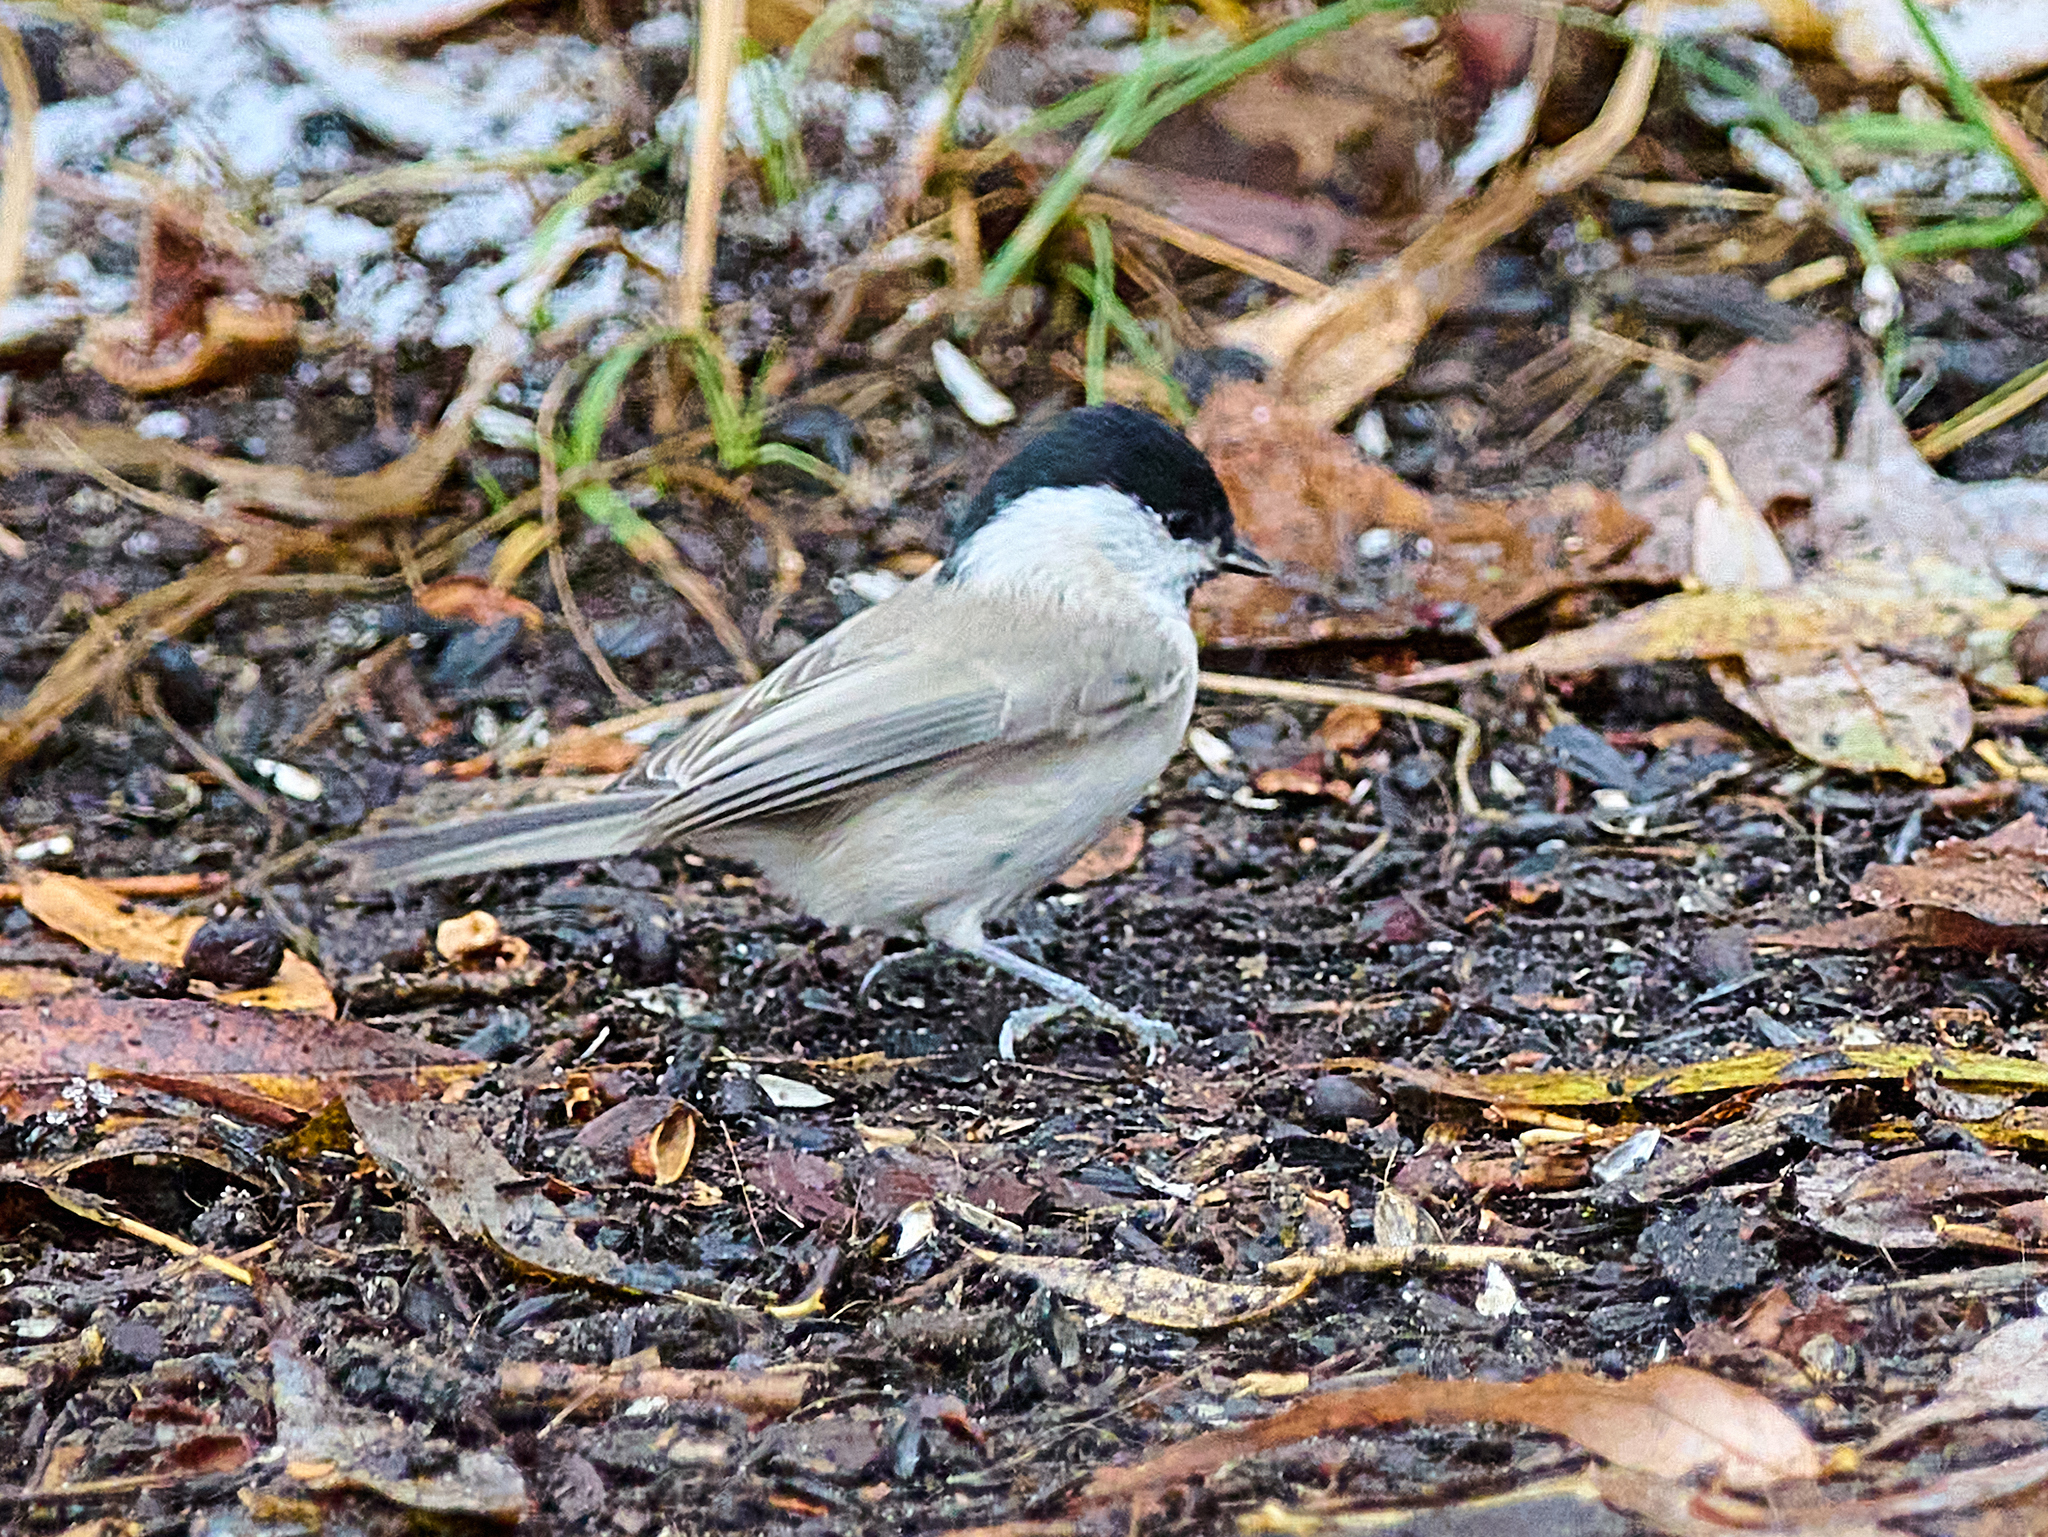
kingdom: Animalia
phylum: Chordata
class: Aves
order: Passeriformes
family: Paridae
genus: Poecile
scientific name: Poecile palustris
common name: Marsh tit
